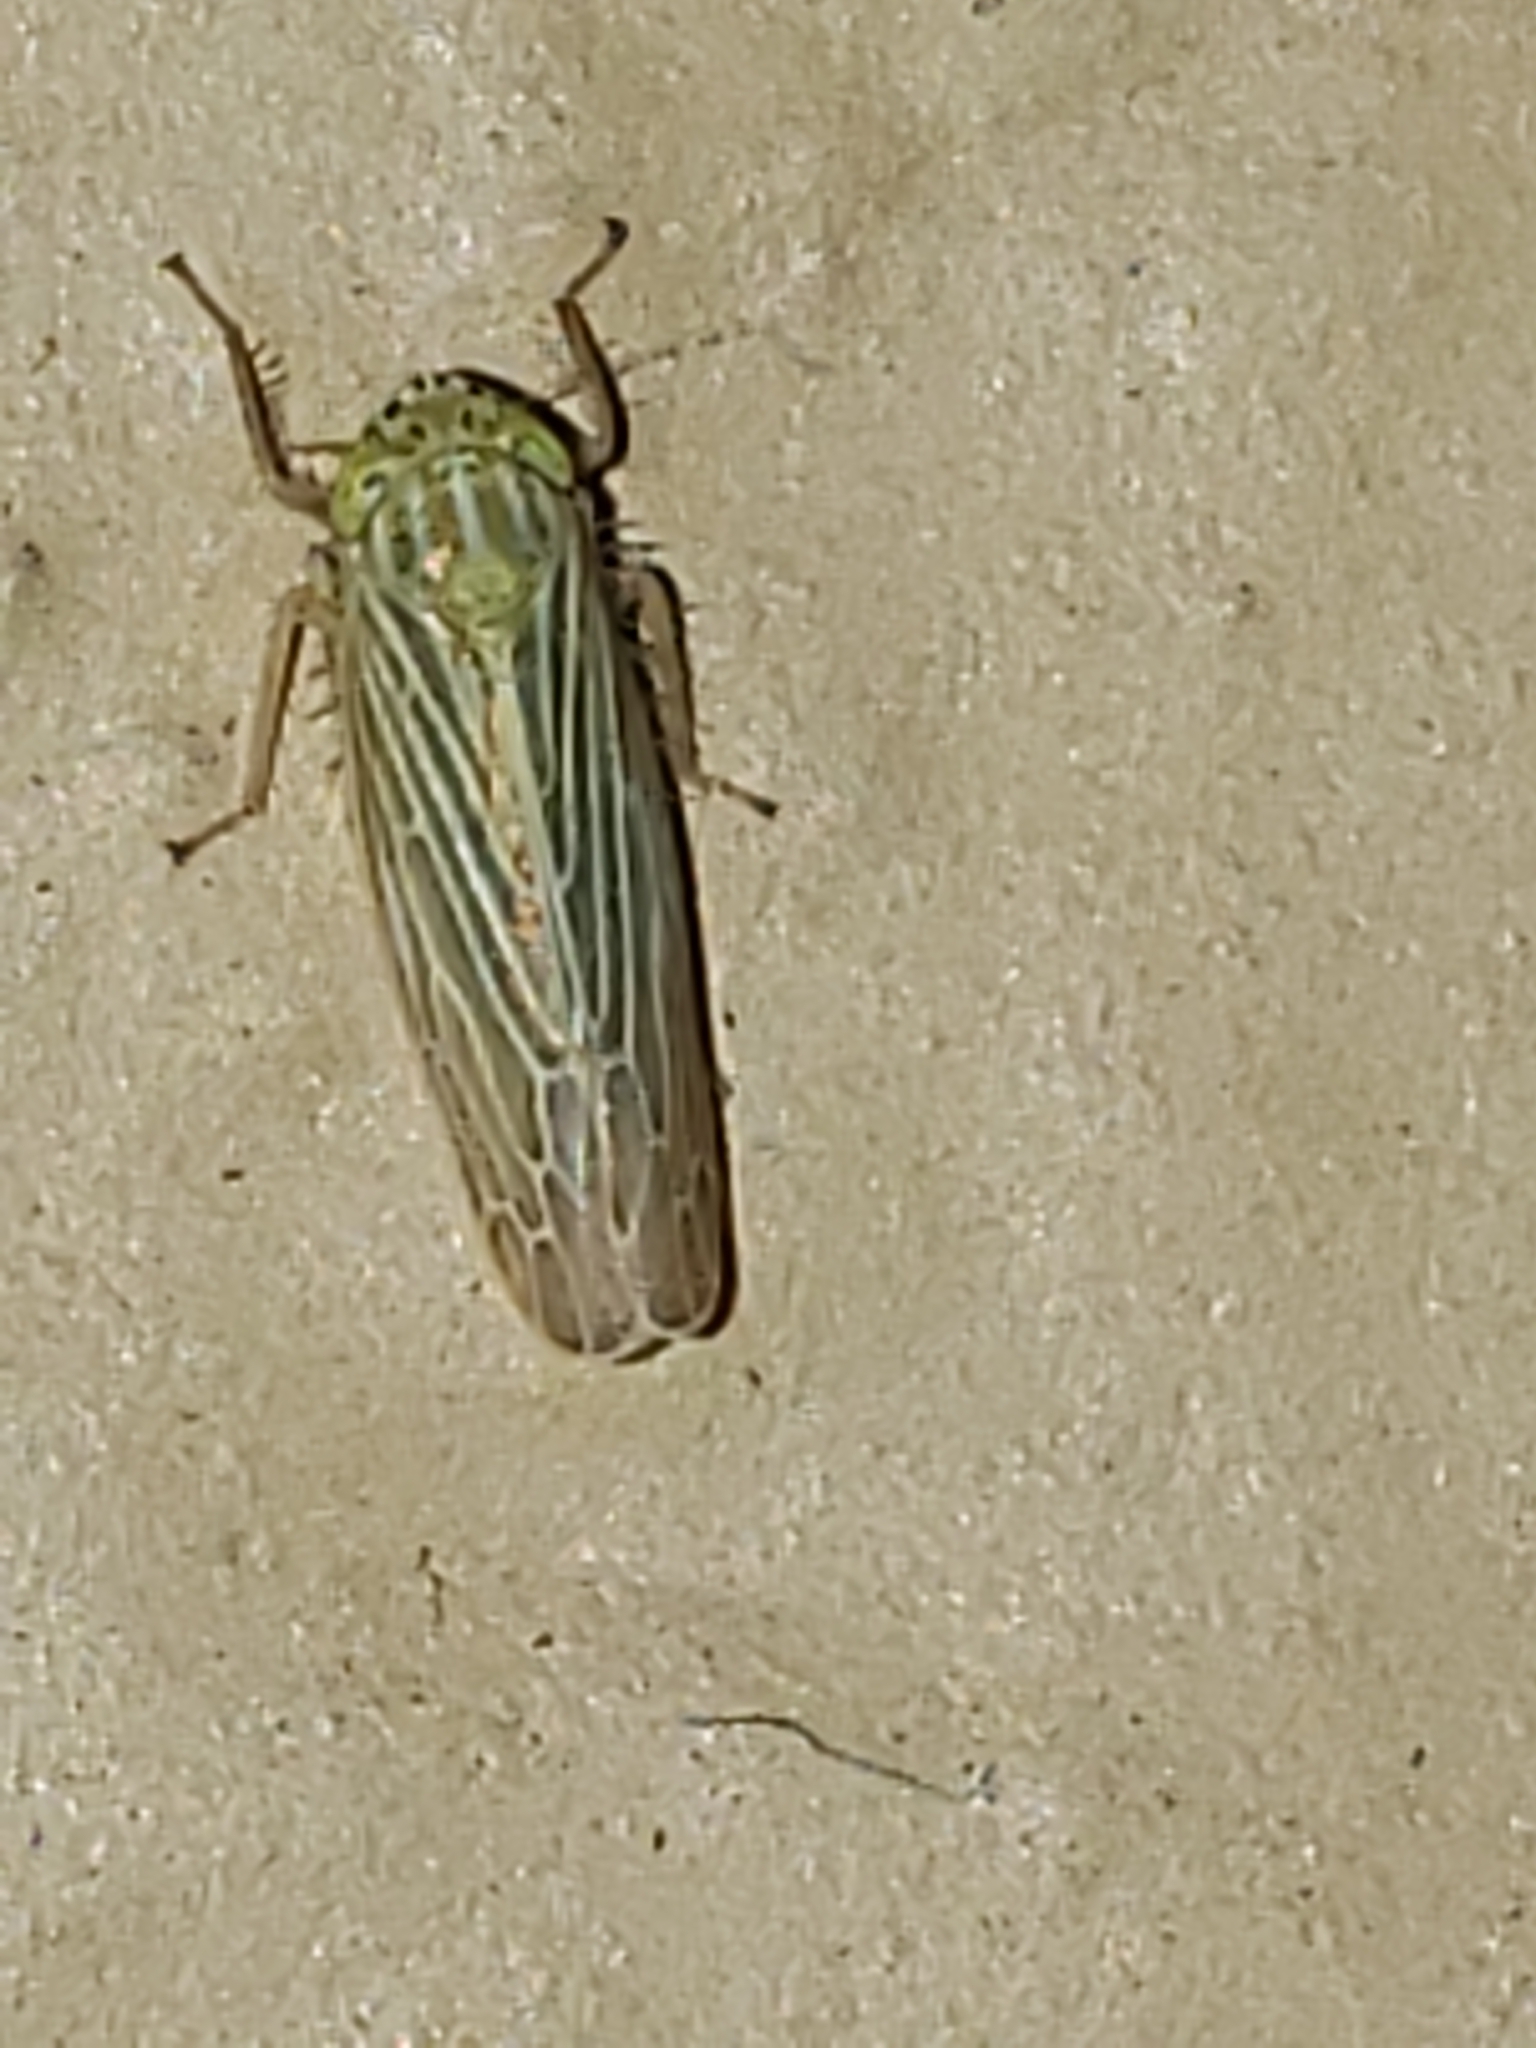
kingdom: Animalia
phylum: Arthropoda
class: Insecta
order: Hemiptera
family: Cicadellidae
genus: Graminella
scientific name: Graminella fitchii
